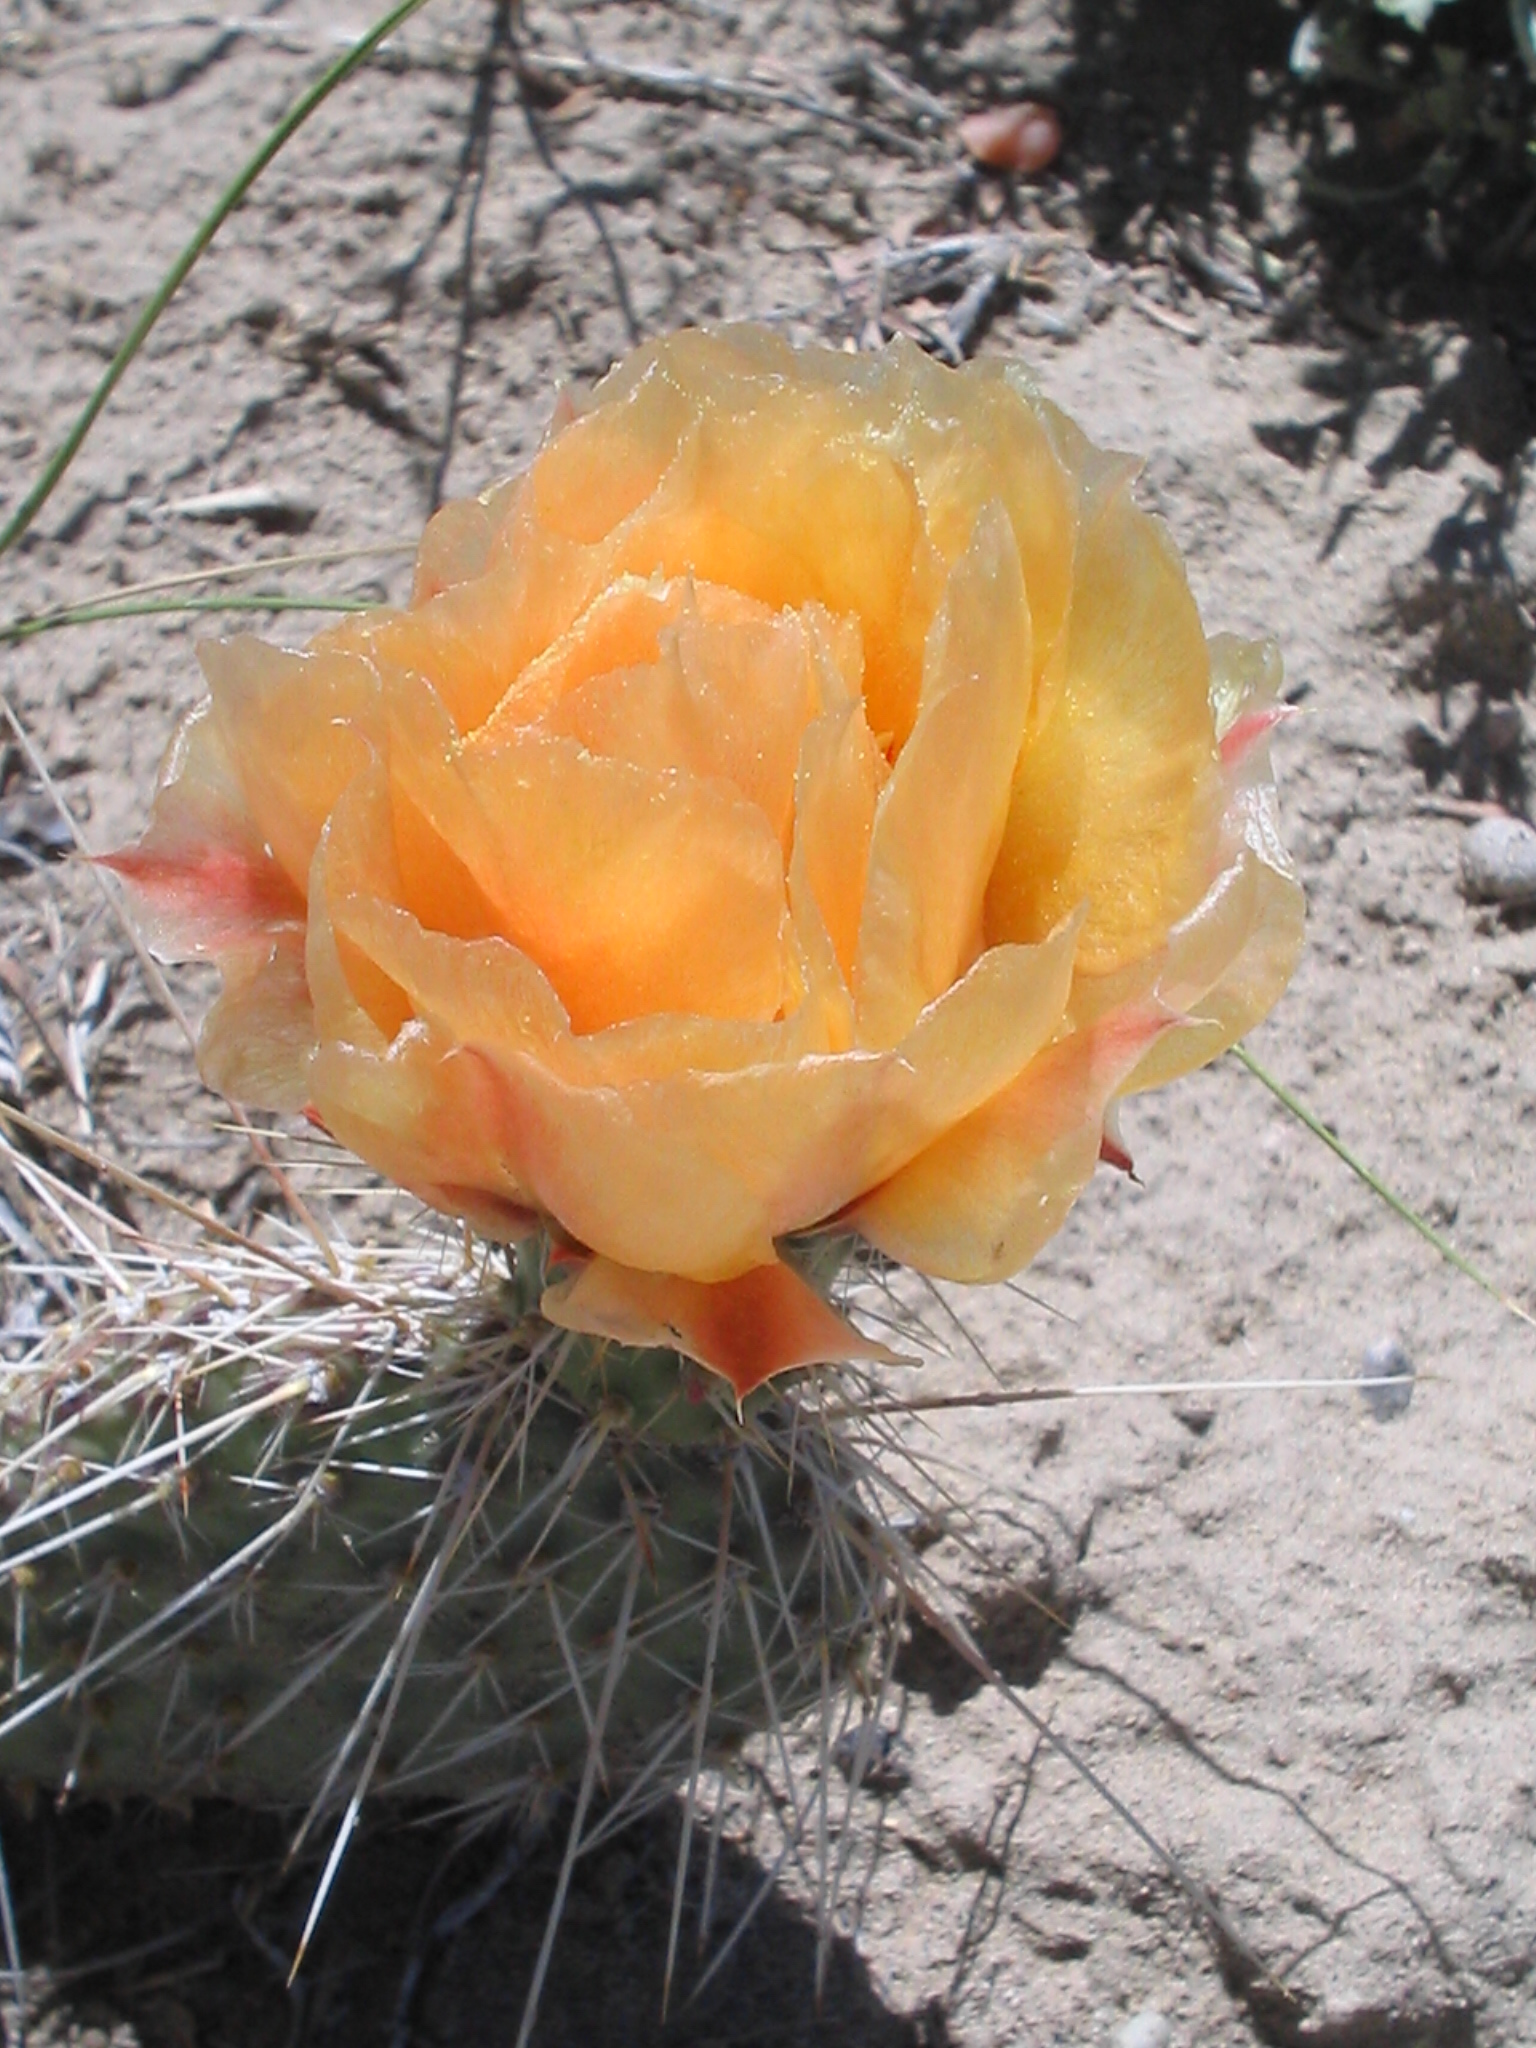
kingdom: Plantae
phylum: Tracheophyta
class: Magnoliopsida
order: Caryophyllales
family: Cactaceae
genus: Opuntia
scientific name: Opuntia polyacantha
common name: Plains prickly-pear
